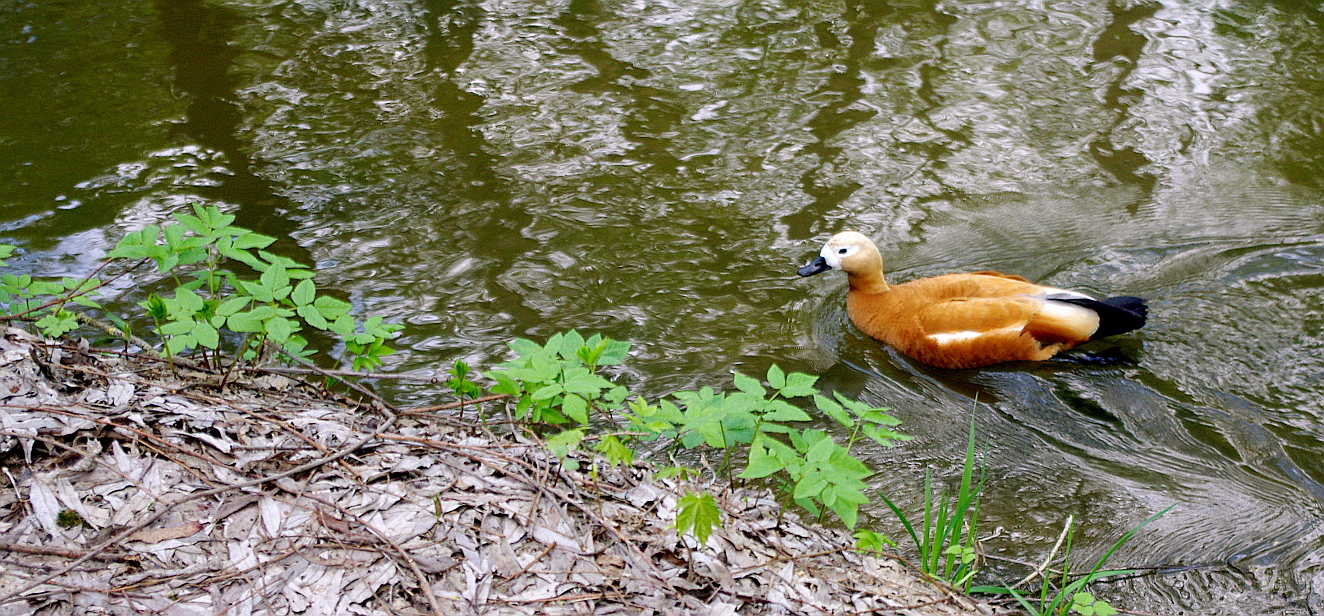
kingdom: Plantae
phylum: Tracheophyta
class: Magnoliopsida
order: Apiales
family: Apiaceae
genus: Aegopodium
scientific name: Aegopodium podagraria
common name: Ground-elder
